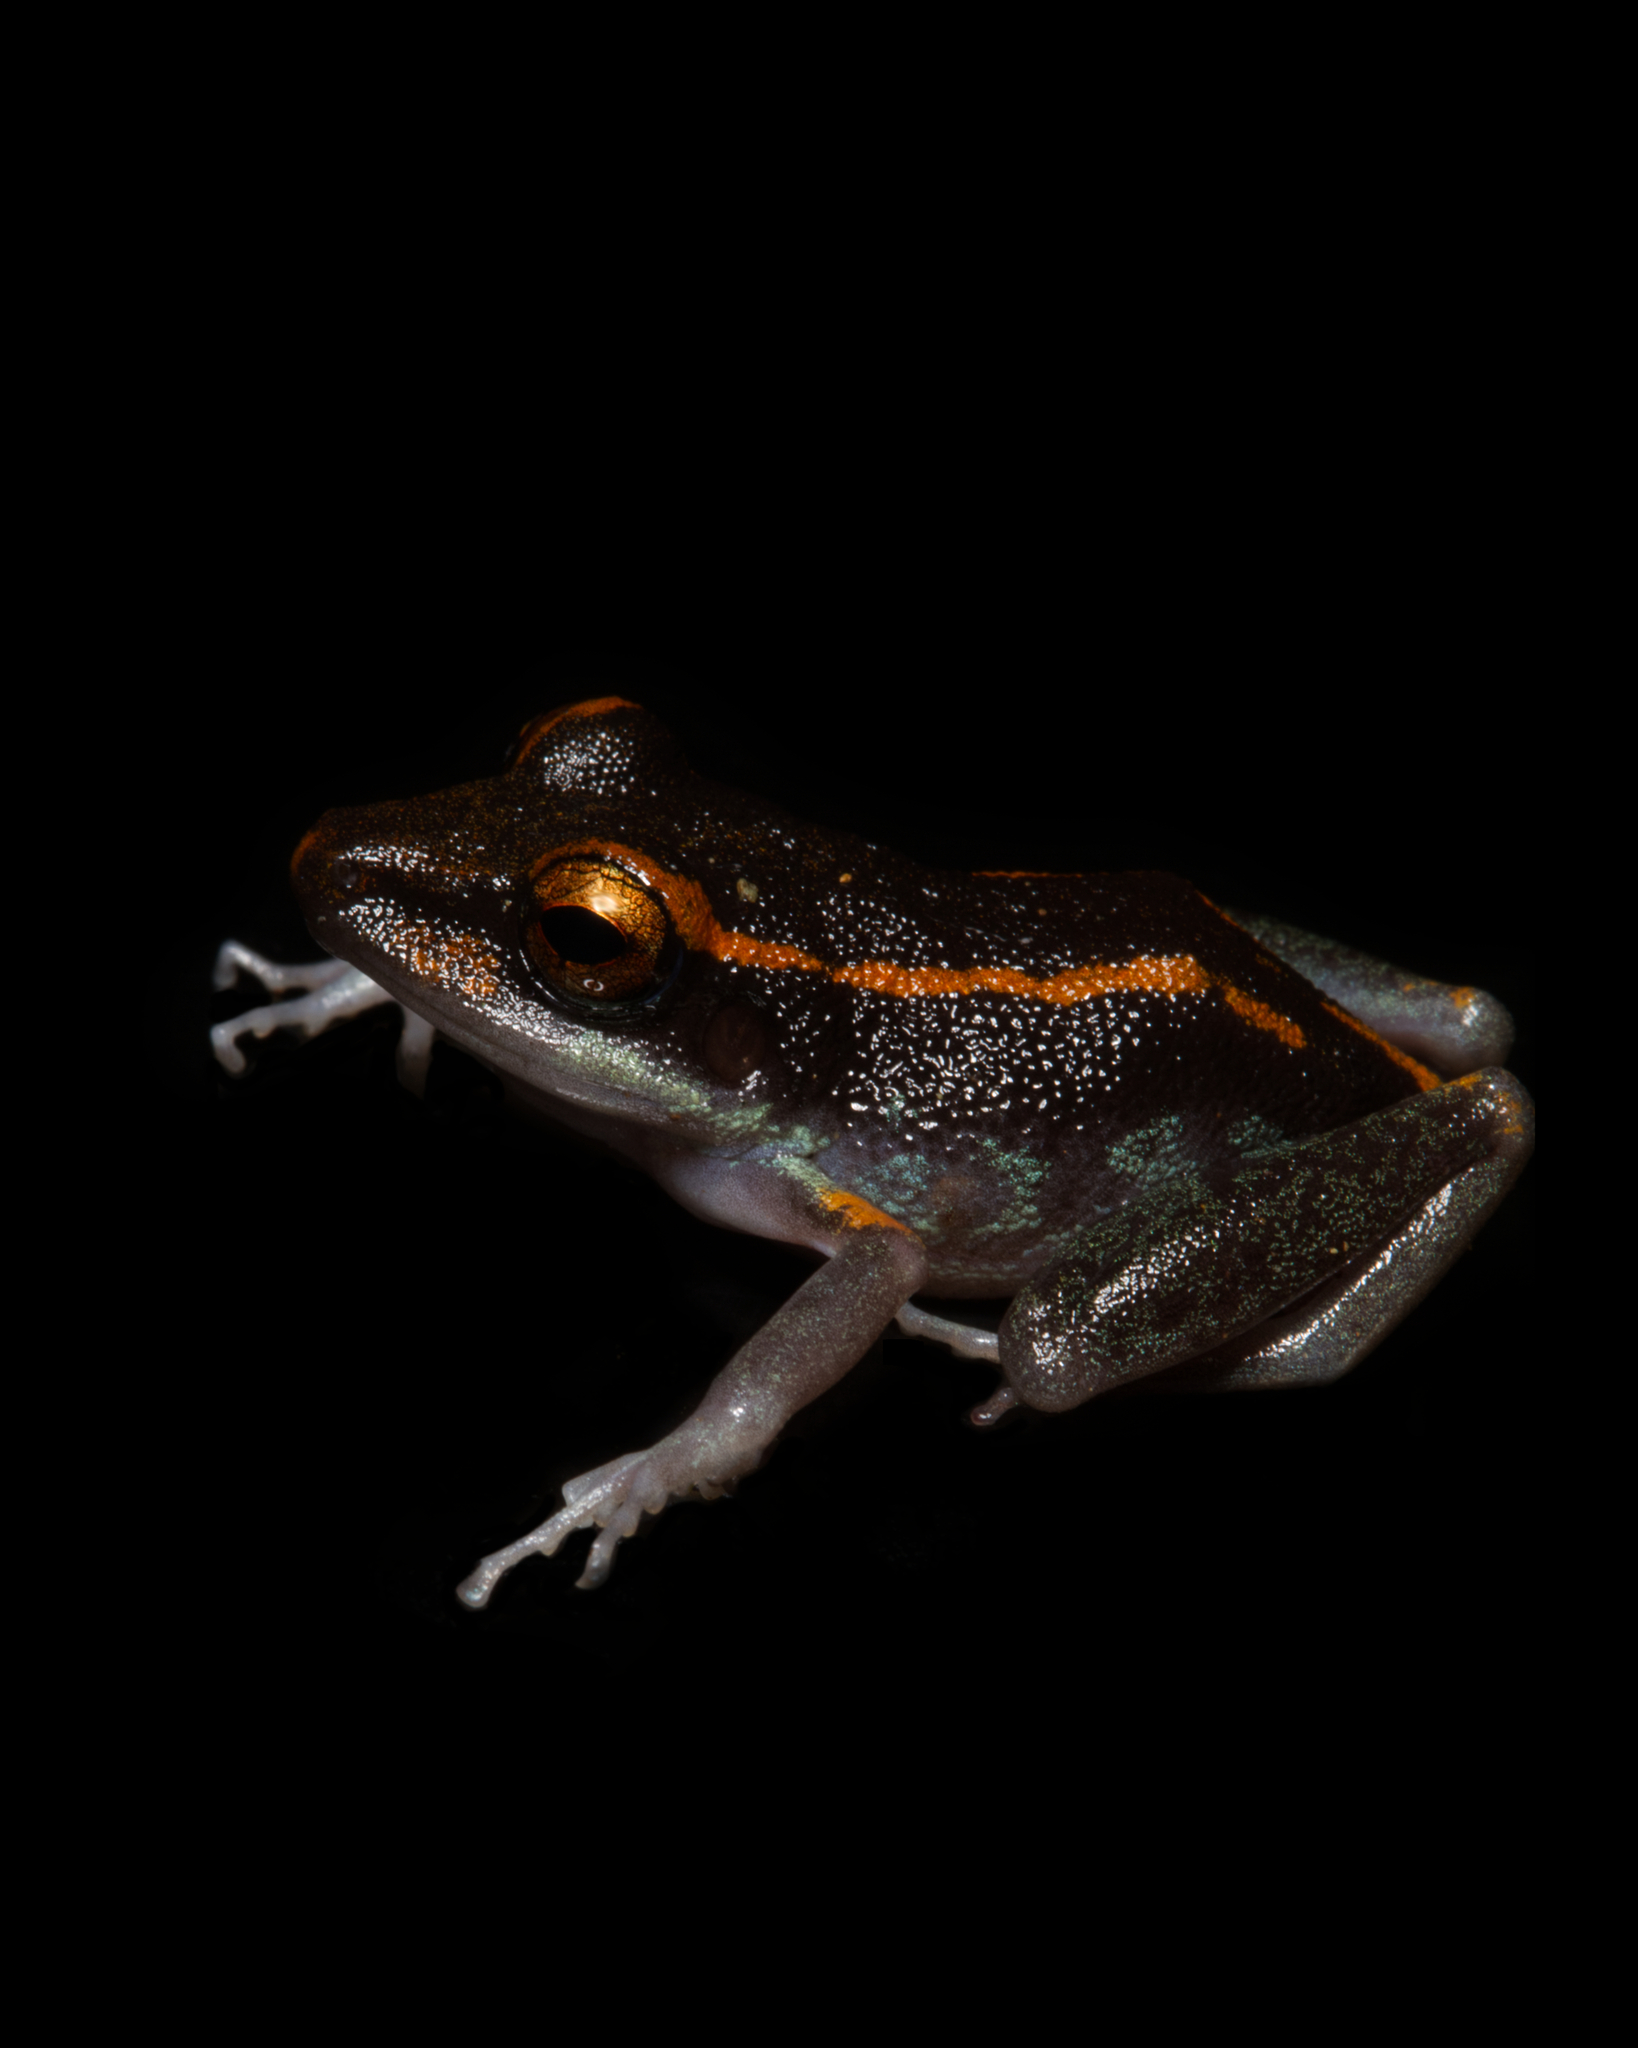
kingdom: Animalia
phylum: Chordata
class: Amphibia
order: Anura
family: Craugastoridae
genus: Pristimantis
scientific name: Pristimantis gaigei
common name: Fort randolph robber frog
